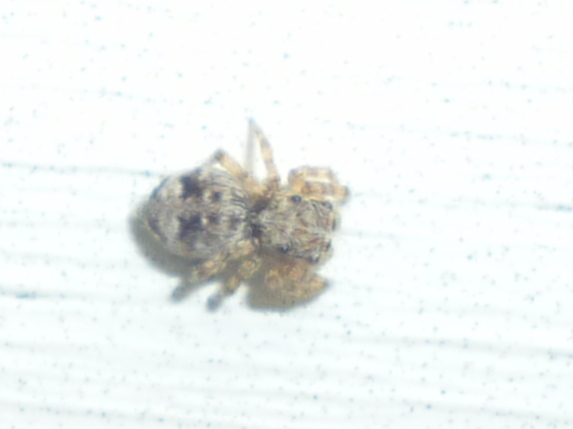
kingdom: Animalia
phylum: Arthropoda
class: Arachnida
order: Araneae
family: Salticidae
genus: Attulus
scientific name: Attulus fasciger
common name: Asiatic wall jumping spider
